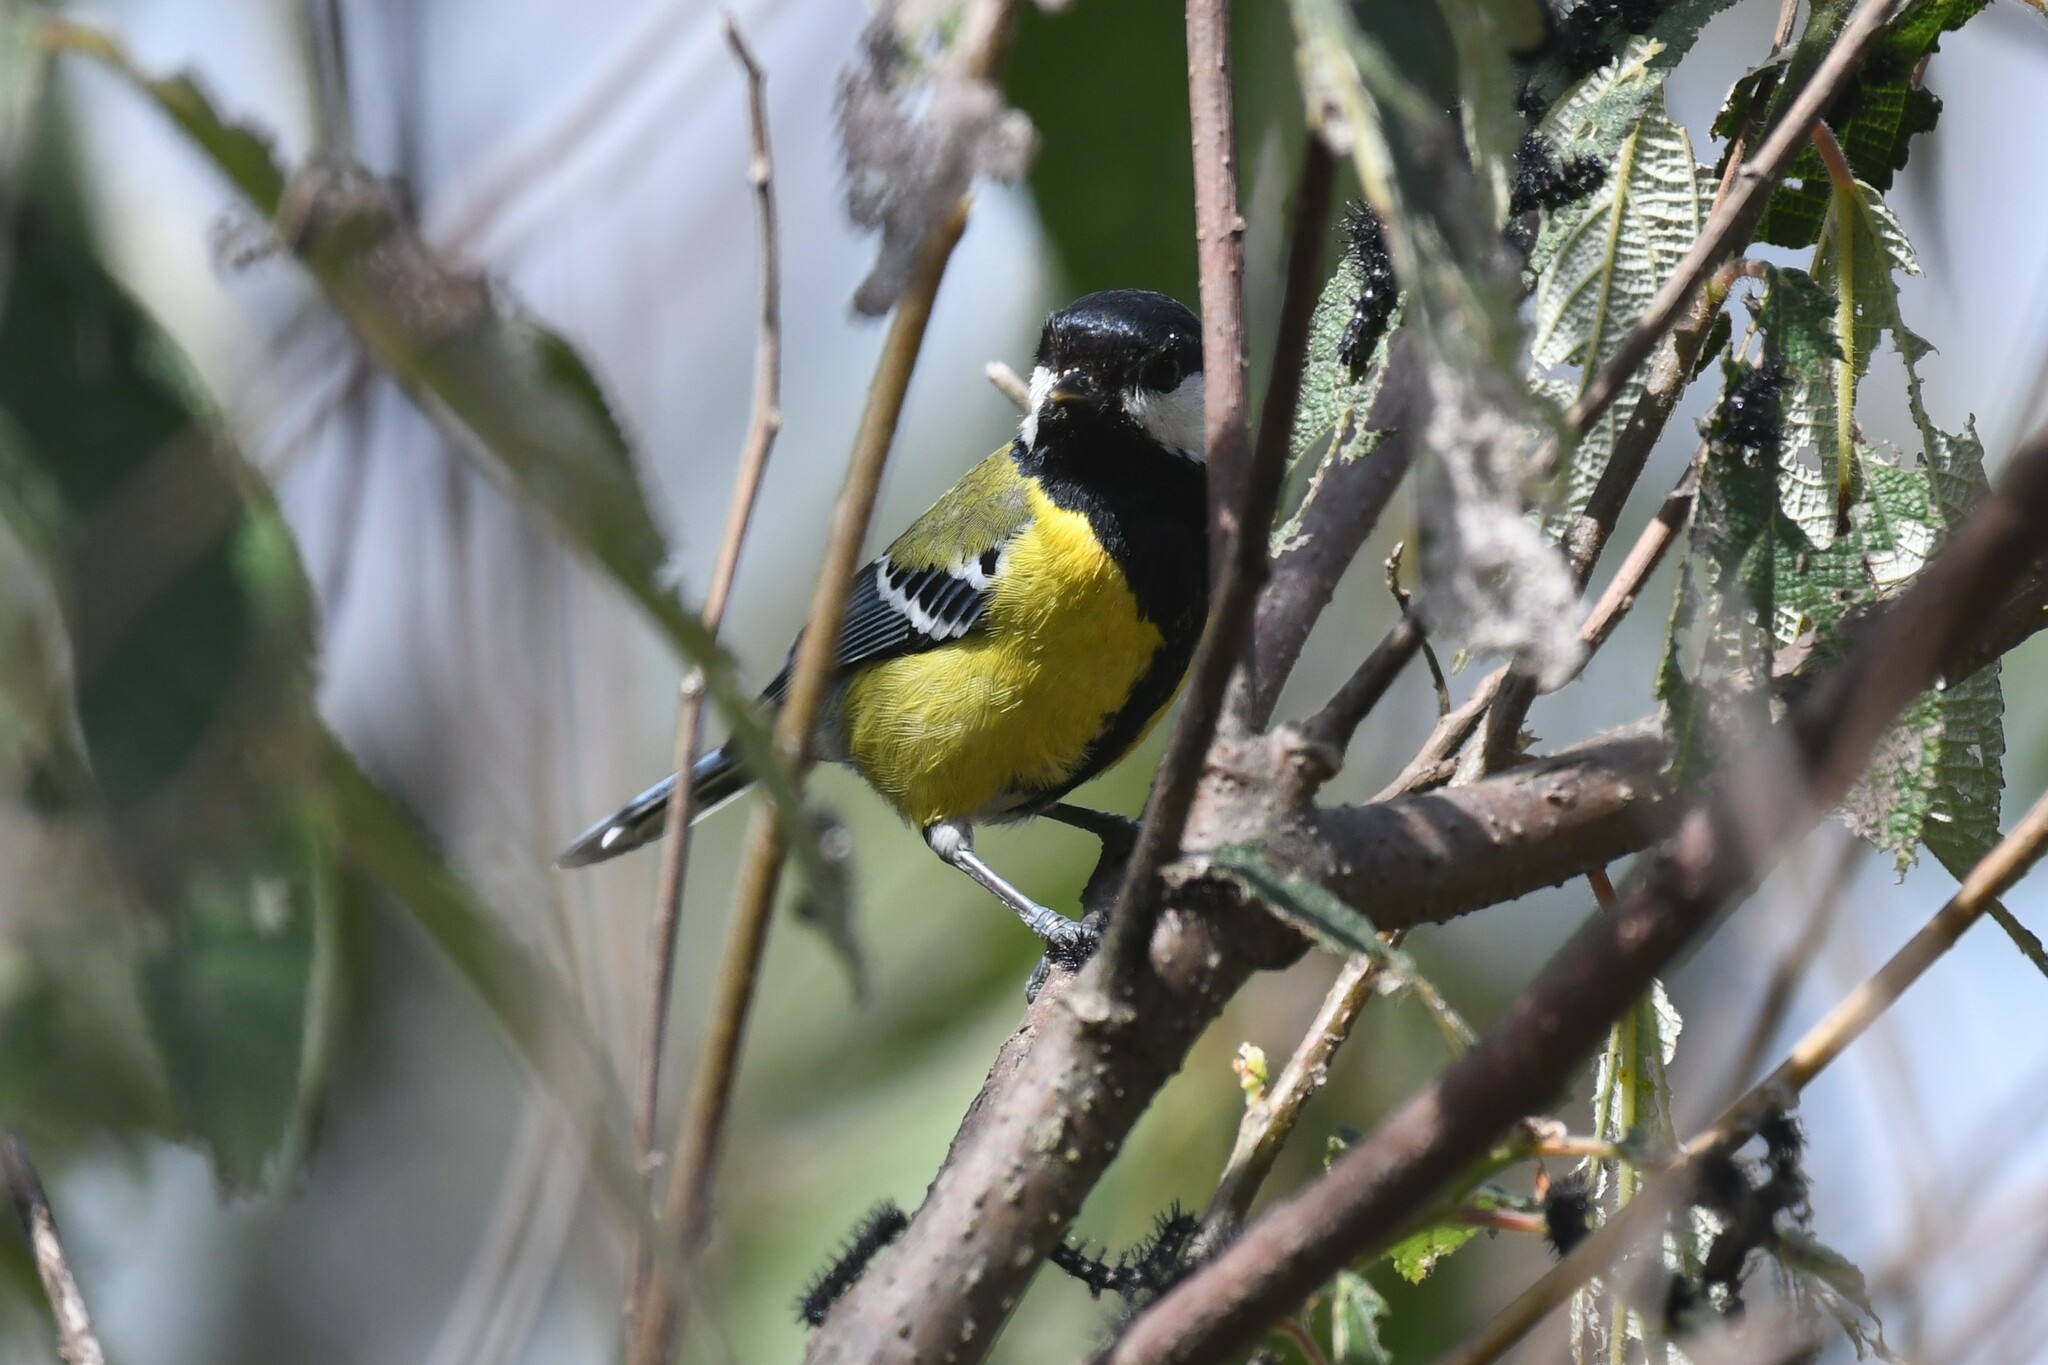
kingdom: Animalia
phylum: Chordata
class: Aves
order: Passeriformes
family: Paridae
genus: Parus
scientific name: Parus monticolus
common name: Green-backed tit
